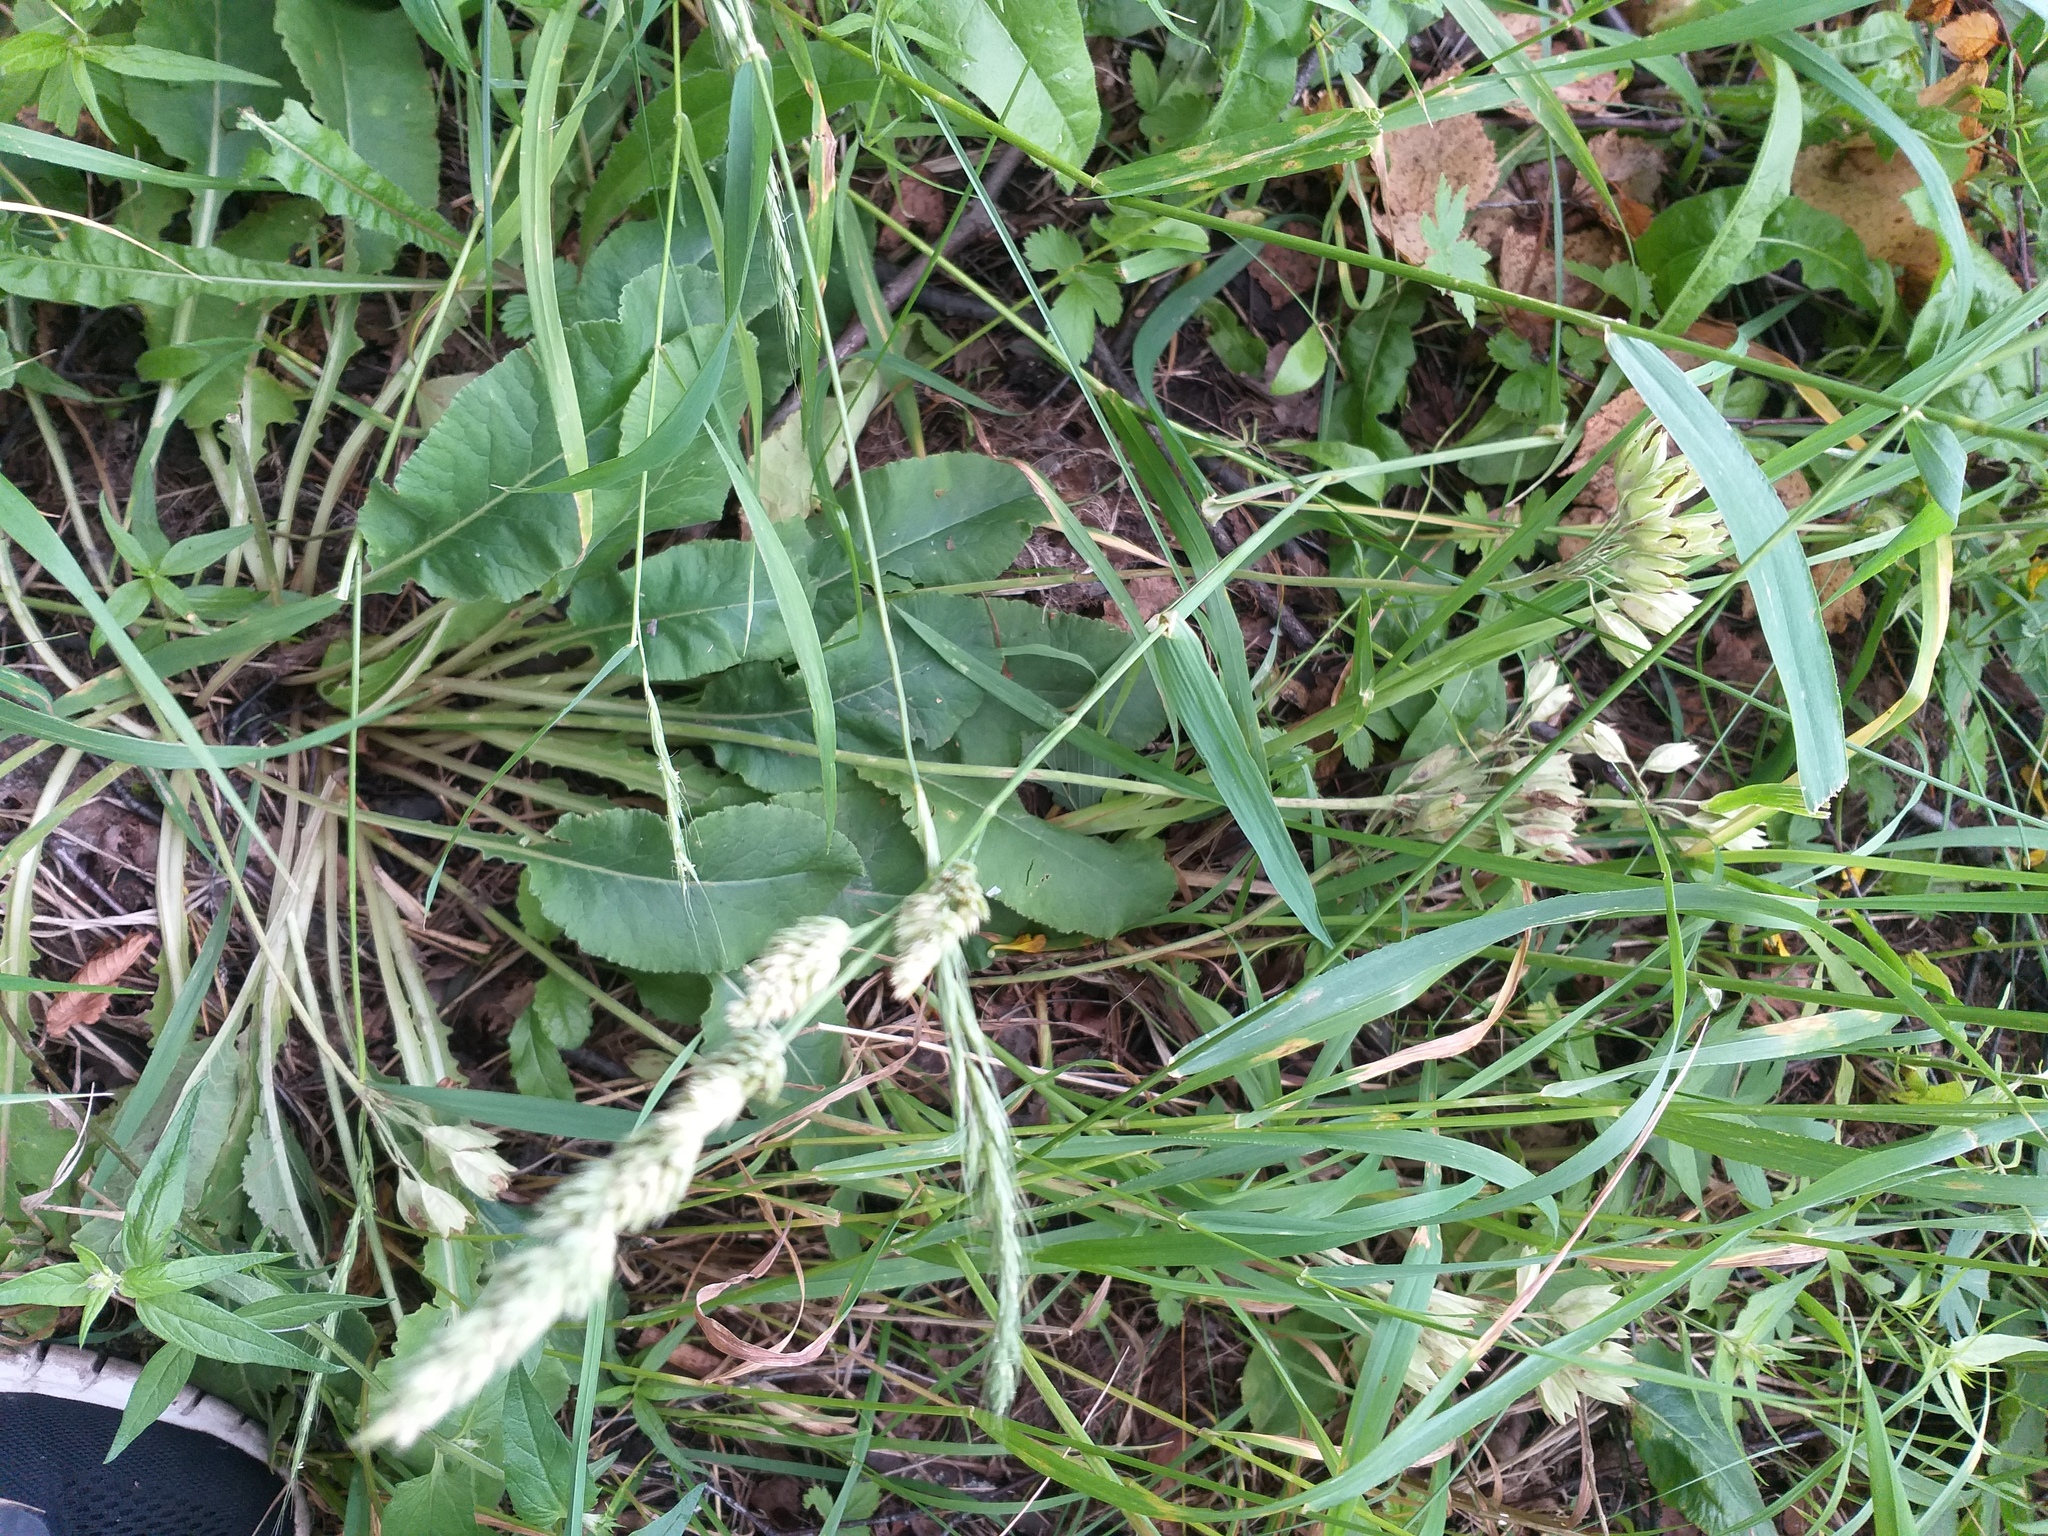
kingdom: Plantae
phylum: Tracheophyta
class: Magnoliopsida
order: Ericales
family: Primulaceae
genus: Primula
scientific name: Primula veris
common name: Cowslip
